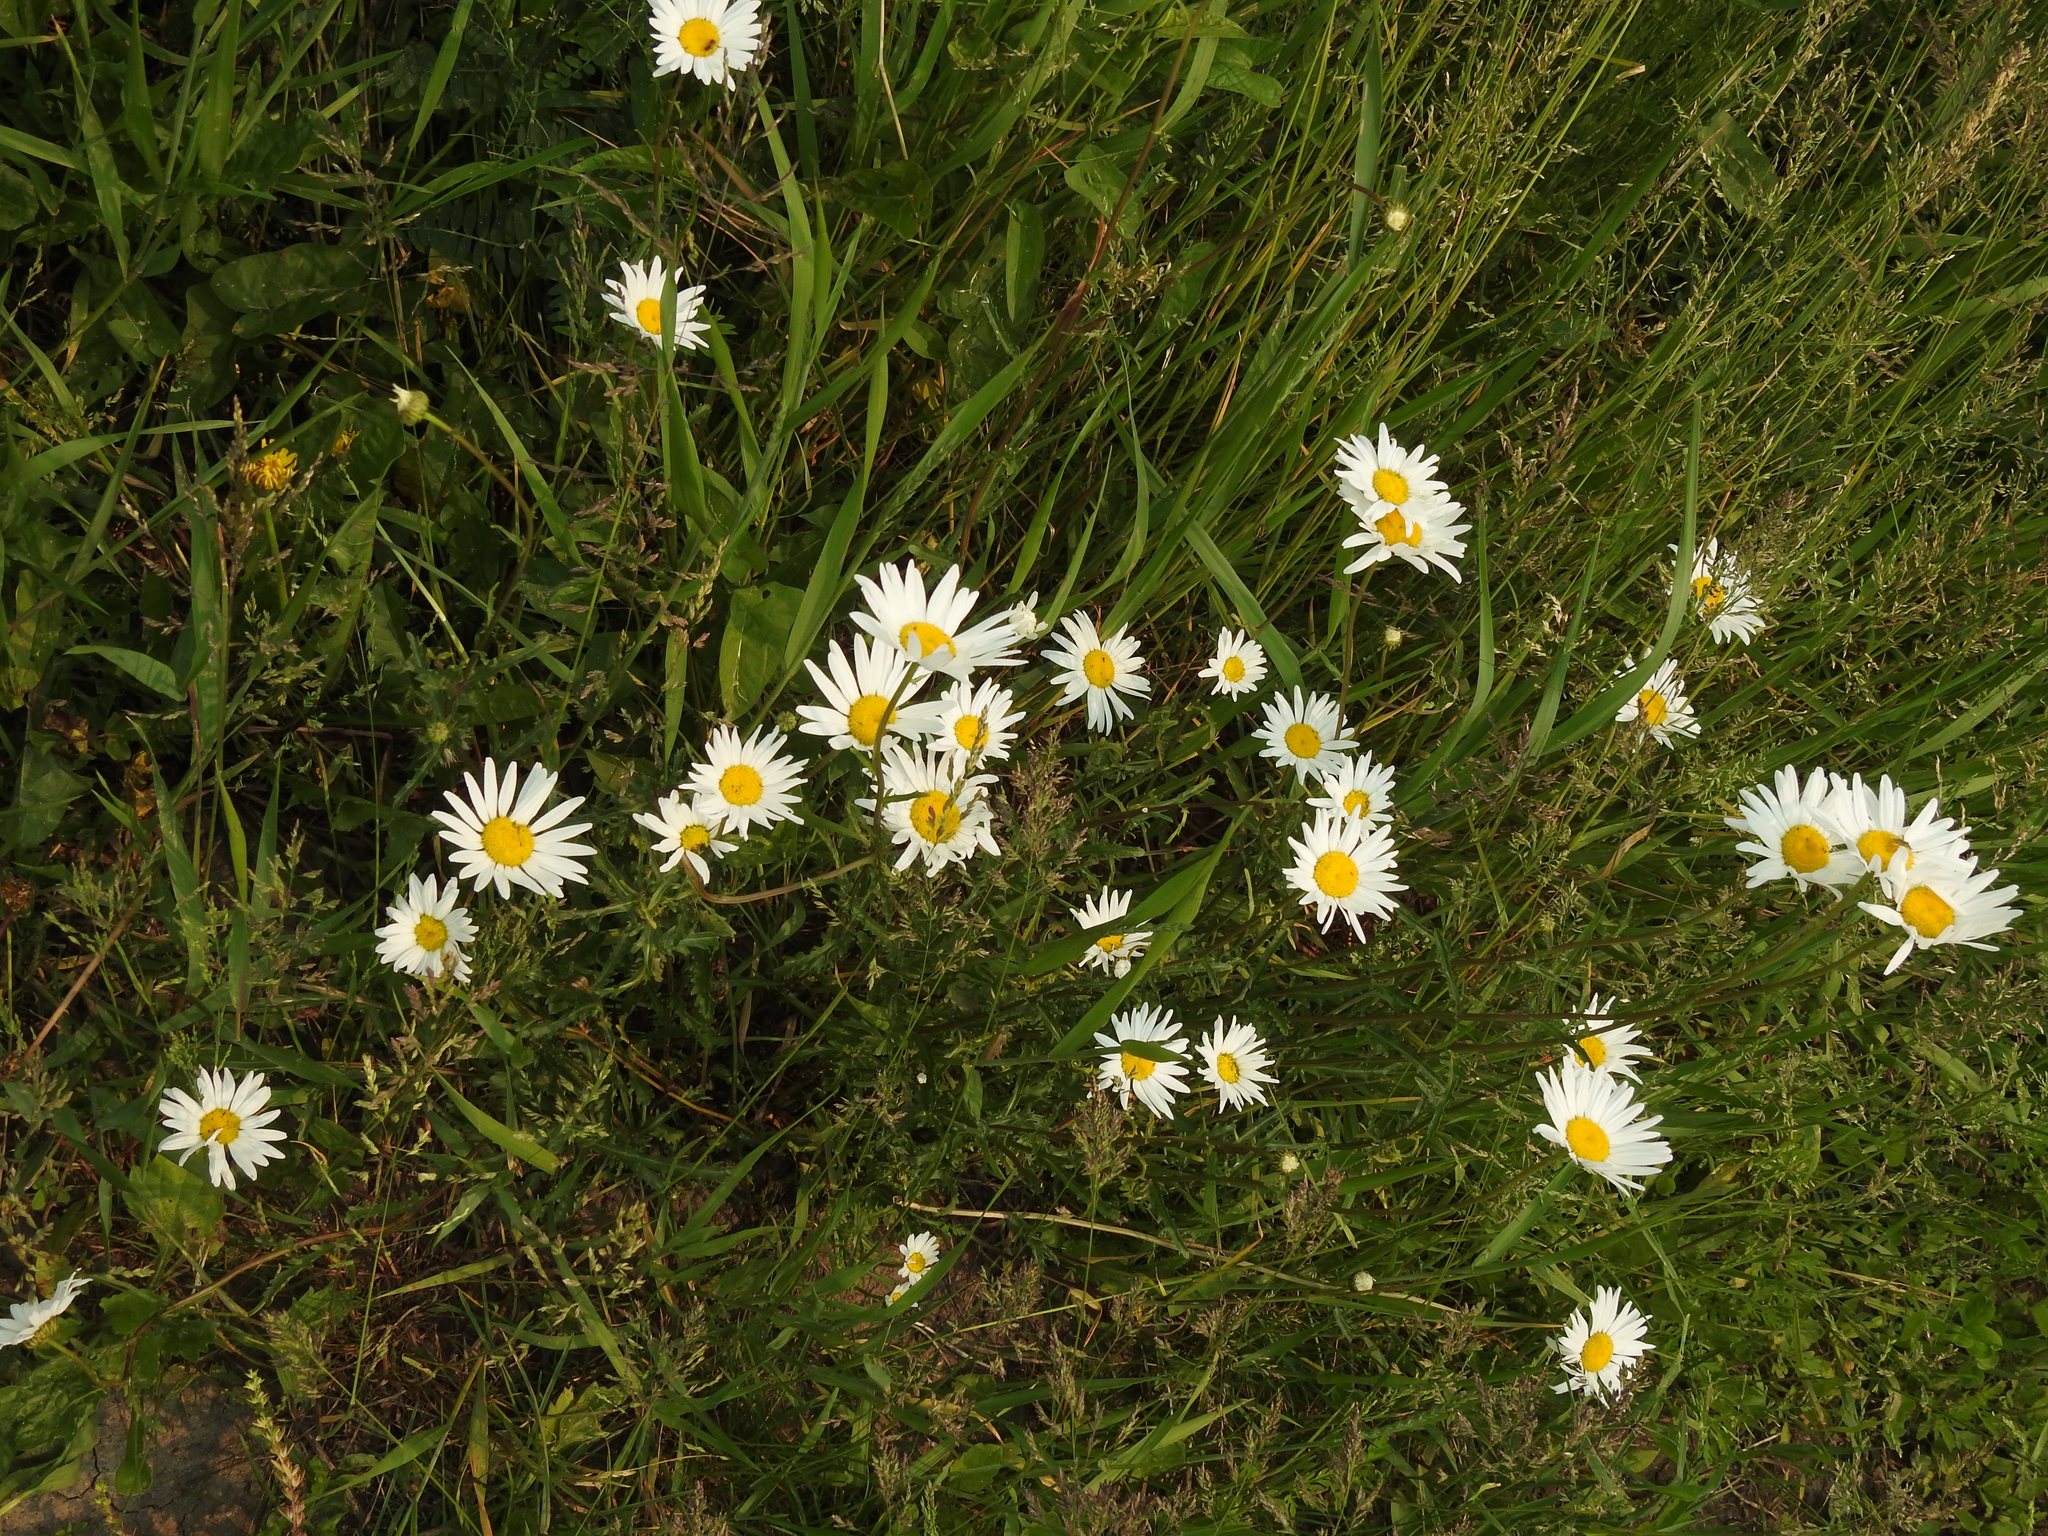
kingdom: Plantae
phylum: Tracheophyta
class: Magnoliopsida
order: Asterales
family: Asteraceae
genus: Leucanthemum
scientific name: Leucanthemum vulgare
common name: Oxeye daisy
